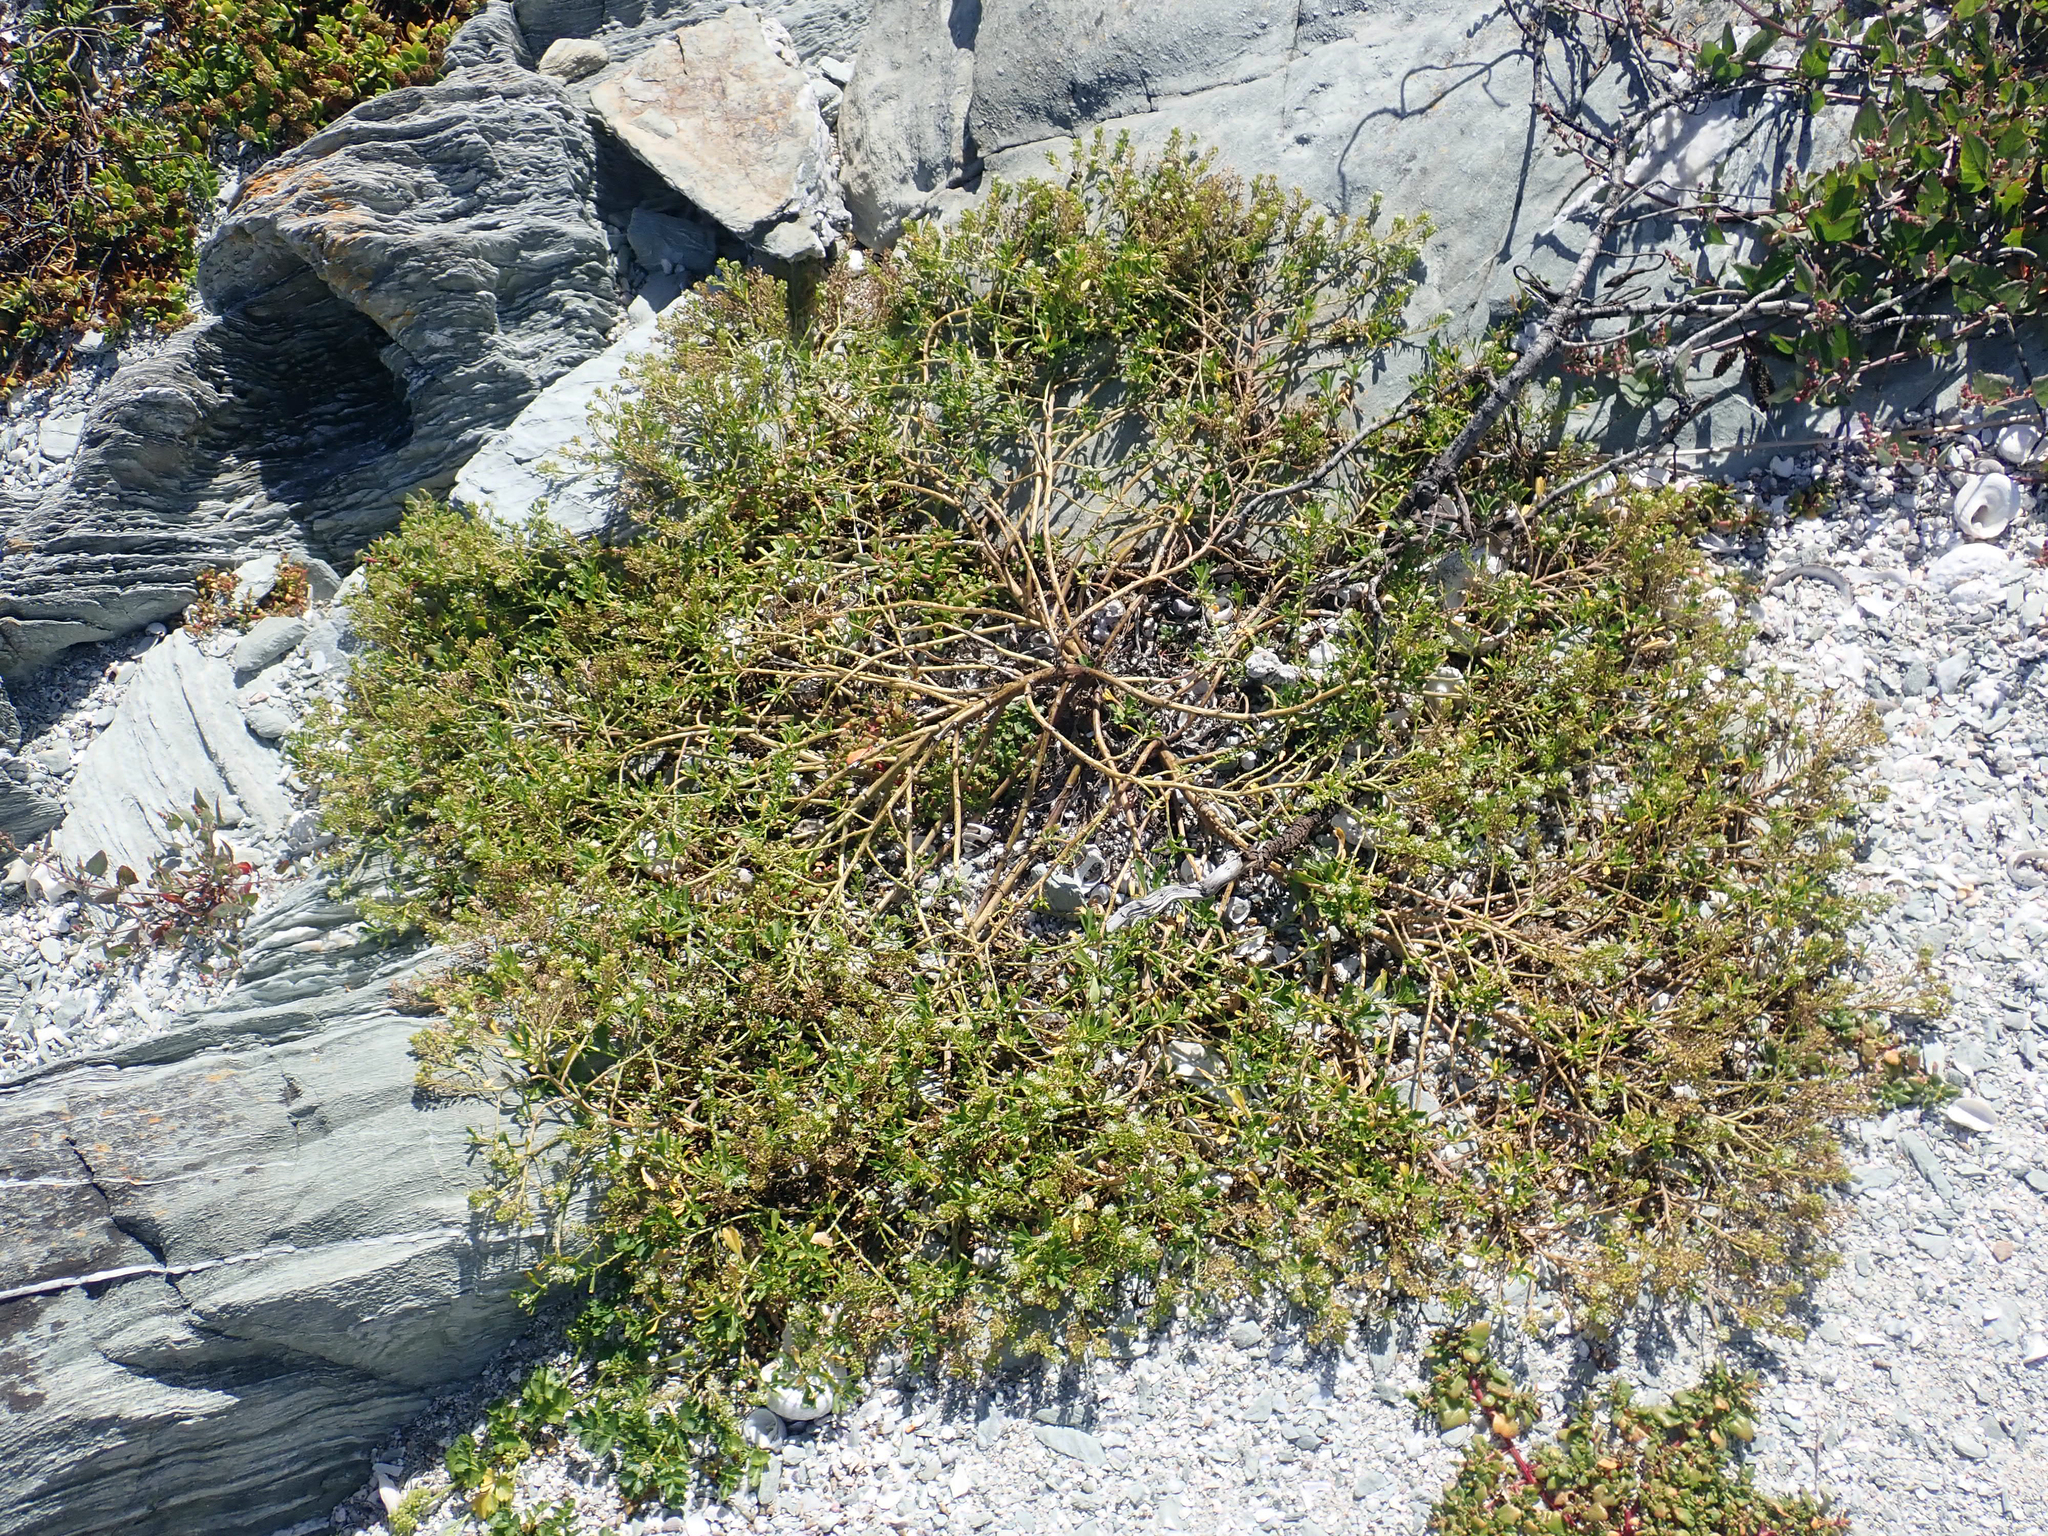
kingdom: Plantae
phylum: Tracheophyta
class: Magnoliopsida
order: Brassicales
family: Brassicaceae
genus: Lepidium
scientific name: Lepidium rekohuense
